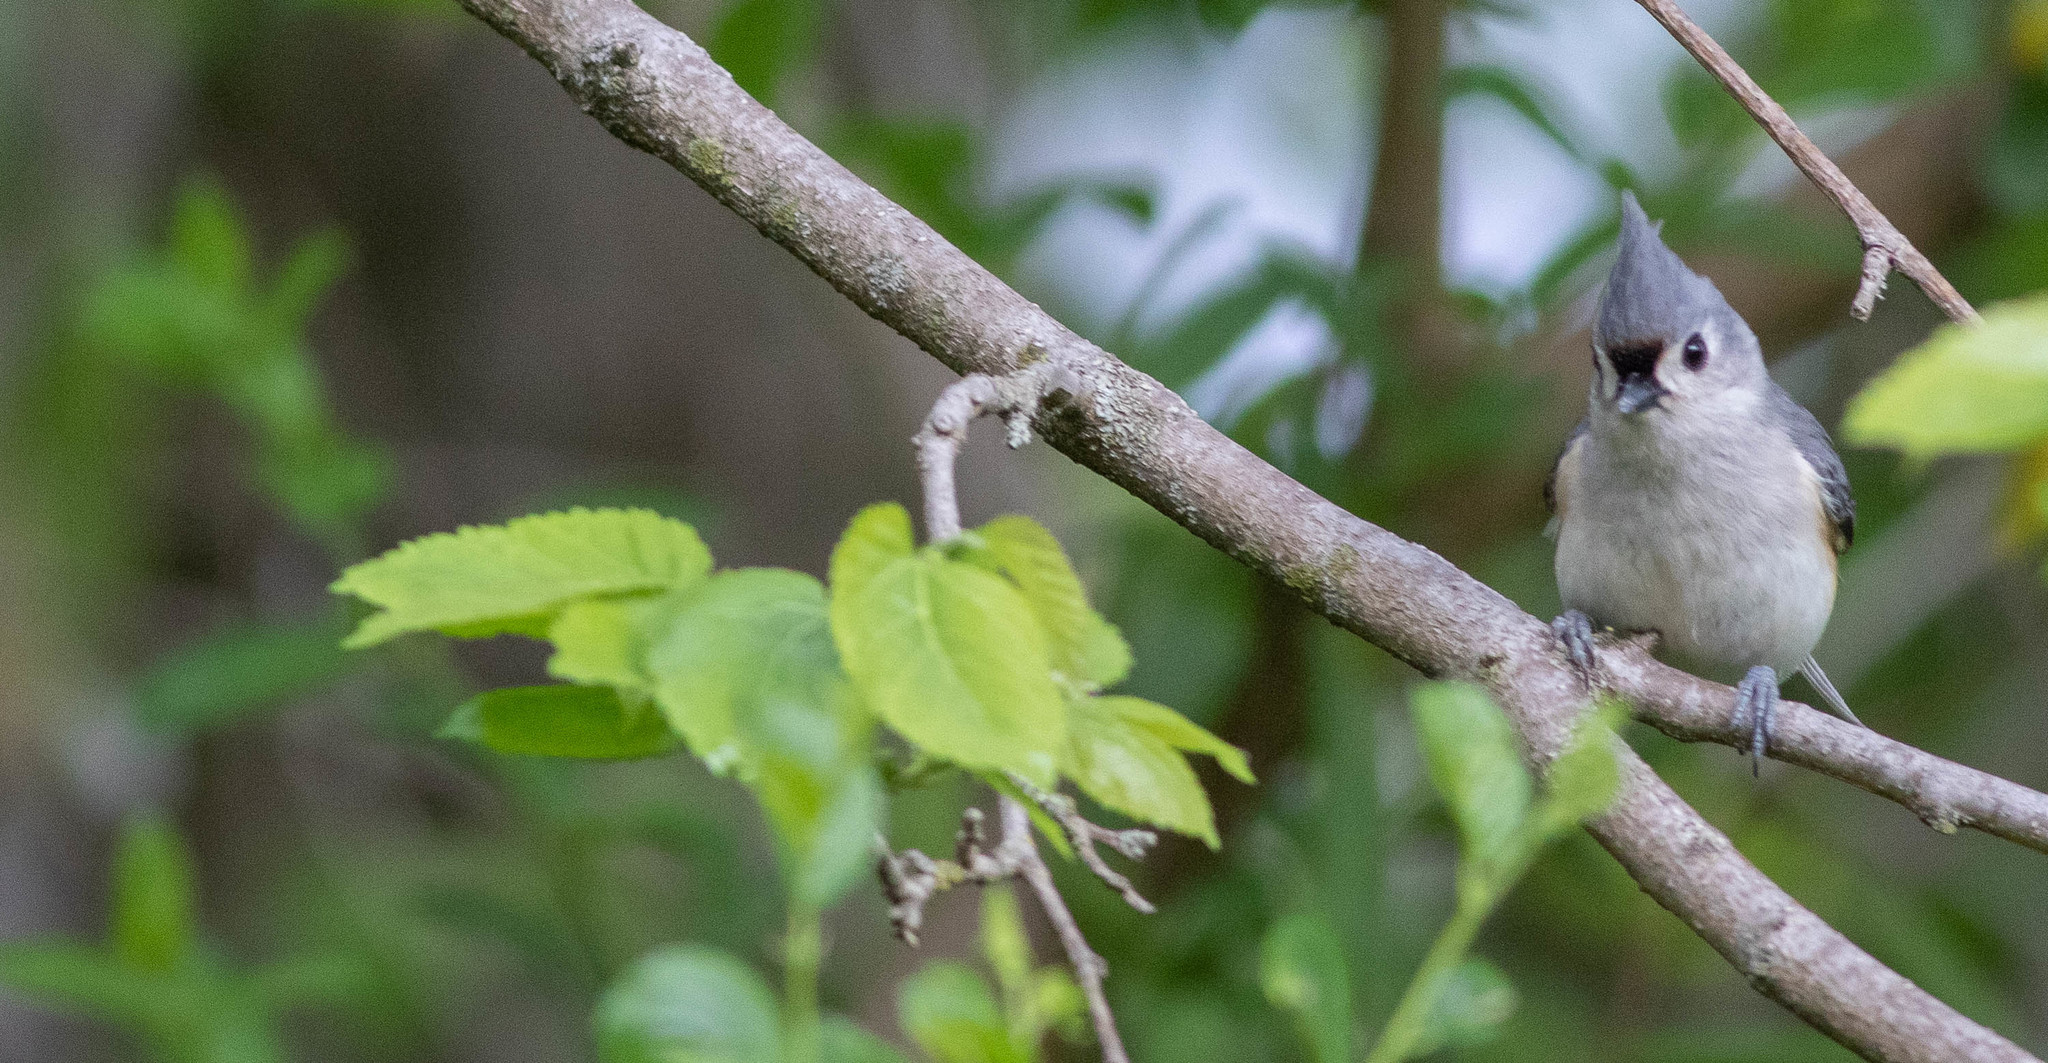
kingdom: Animalia
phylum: Chordata
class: Aves
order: Passeriformes
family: Paridae
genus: Baeolophus
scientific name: Baeolophus bicolor
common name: Tufted titmouse
